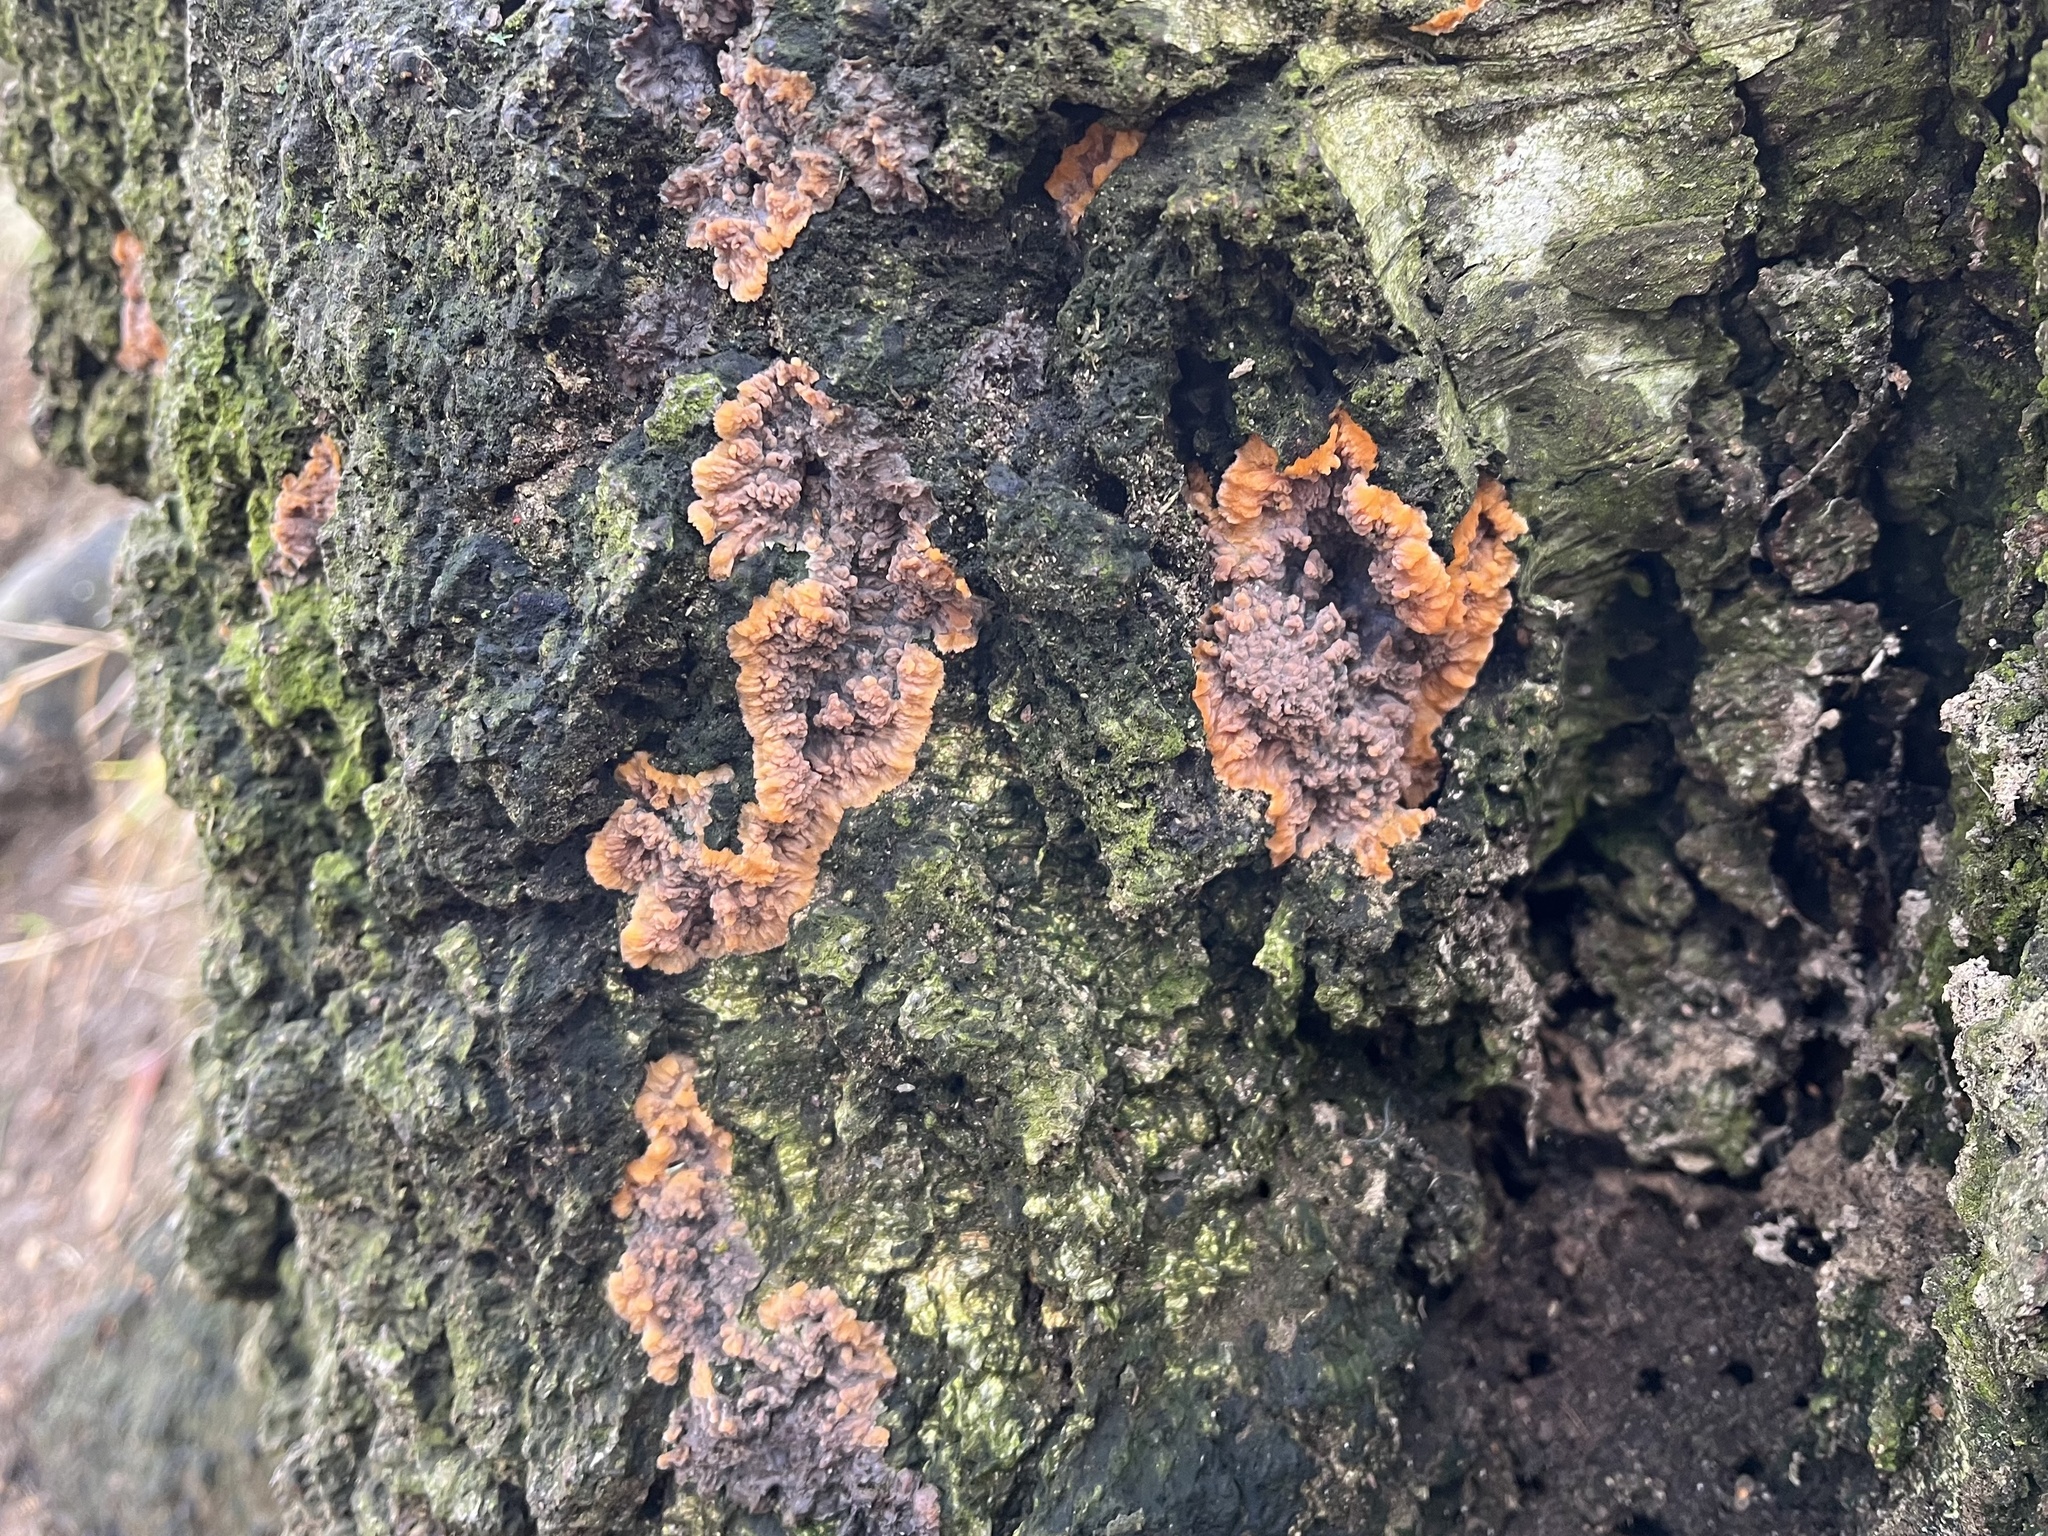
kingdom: Fungi
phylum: Basidiomycota
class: Agaricomycetes
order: Polyporales
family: Meruliaceae
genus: Phlebia
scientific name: Phlebia radiata
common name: Wrinkled crust
